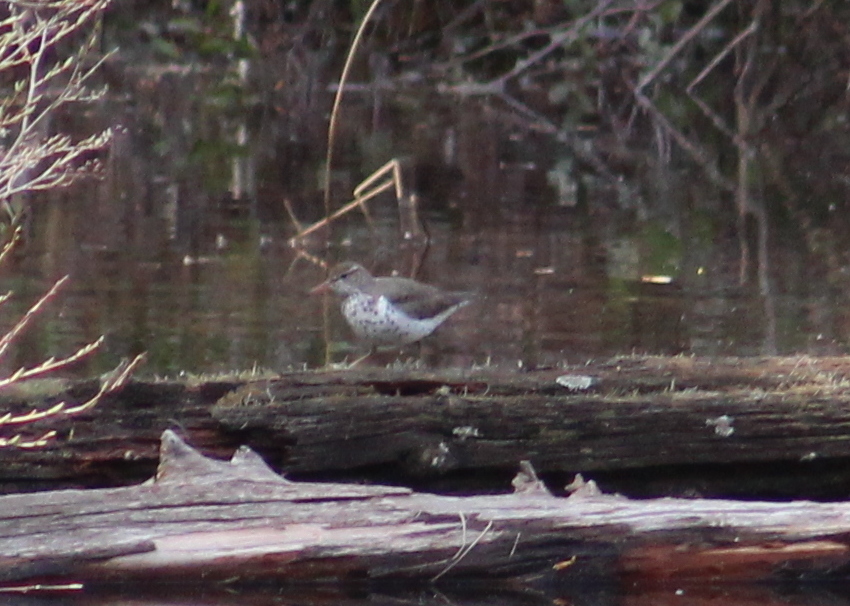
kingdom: Animalia
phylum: Chordata
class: Aves
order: Charadriiformes
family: Scolopacidae
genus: Actitis
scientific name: Actitis macularius
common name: Spotted sandpiper
